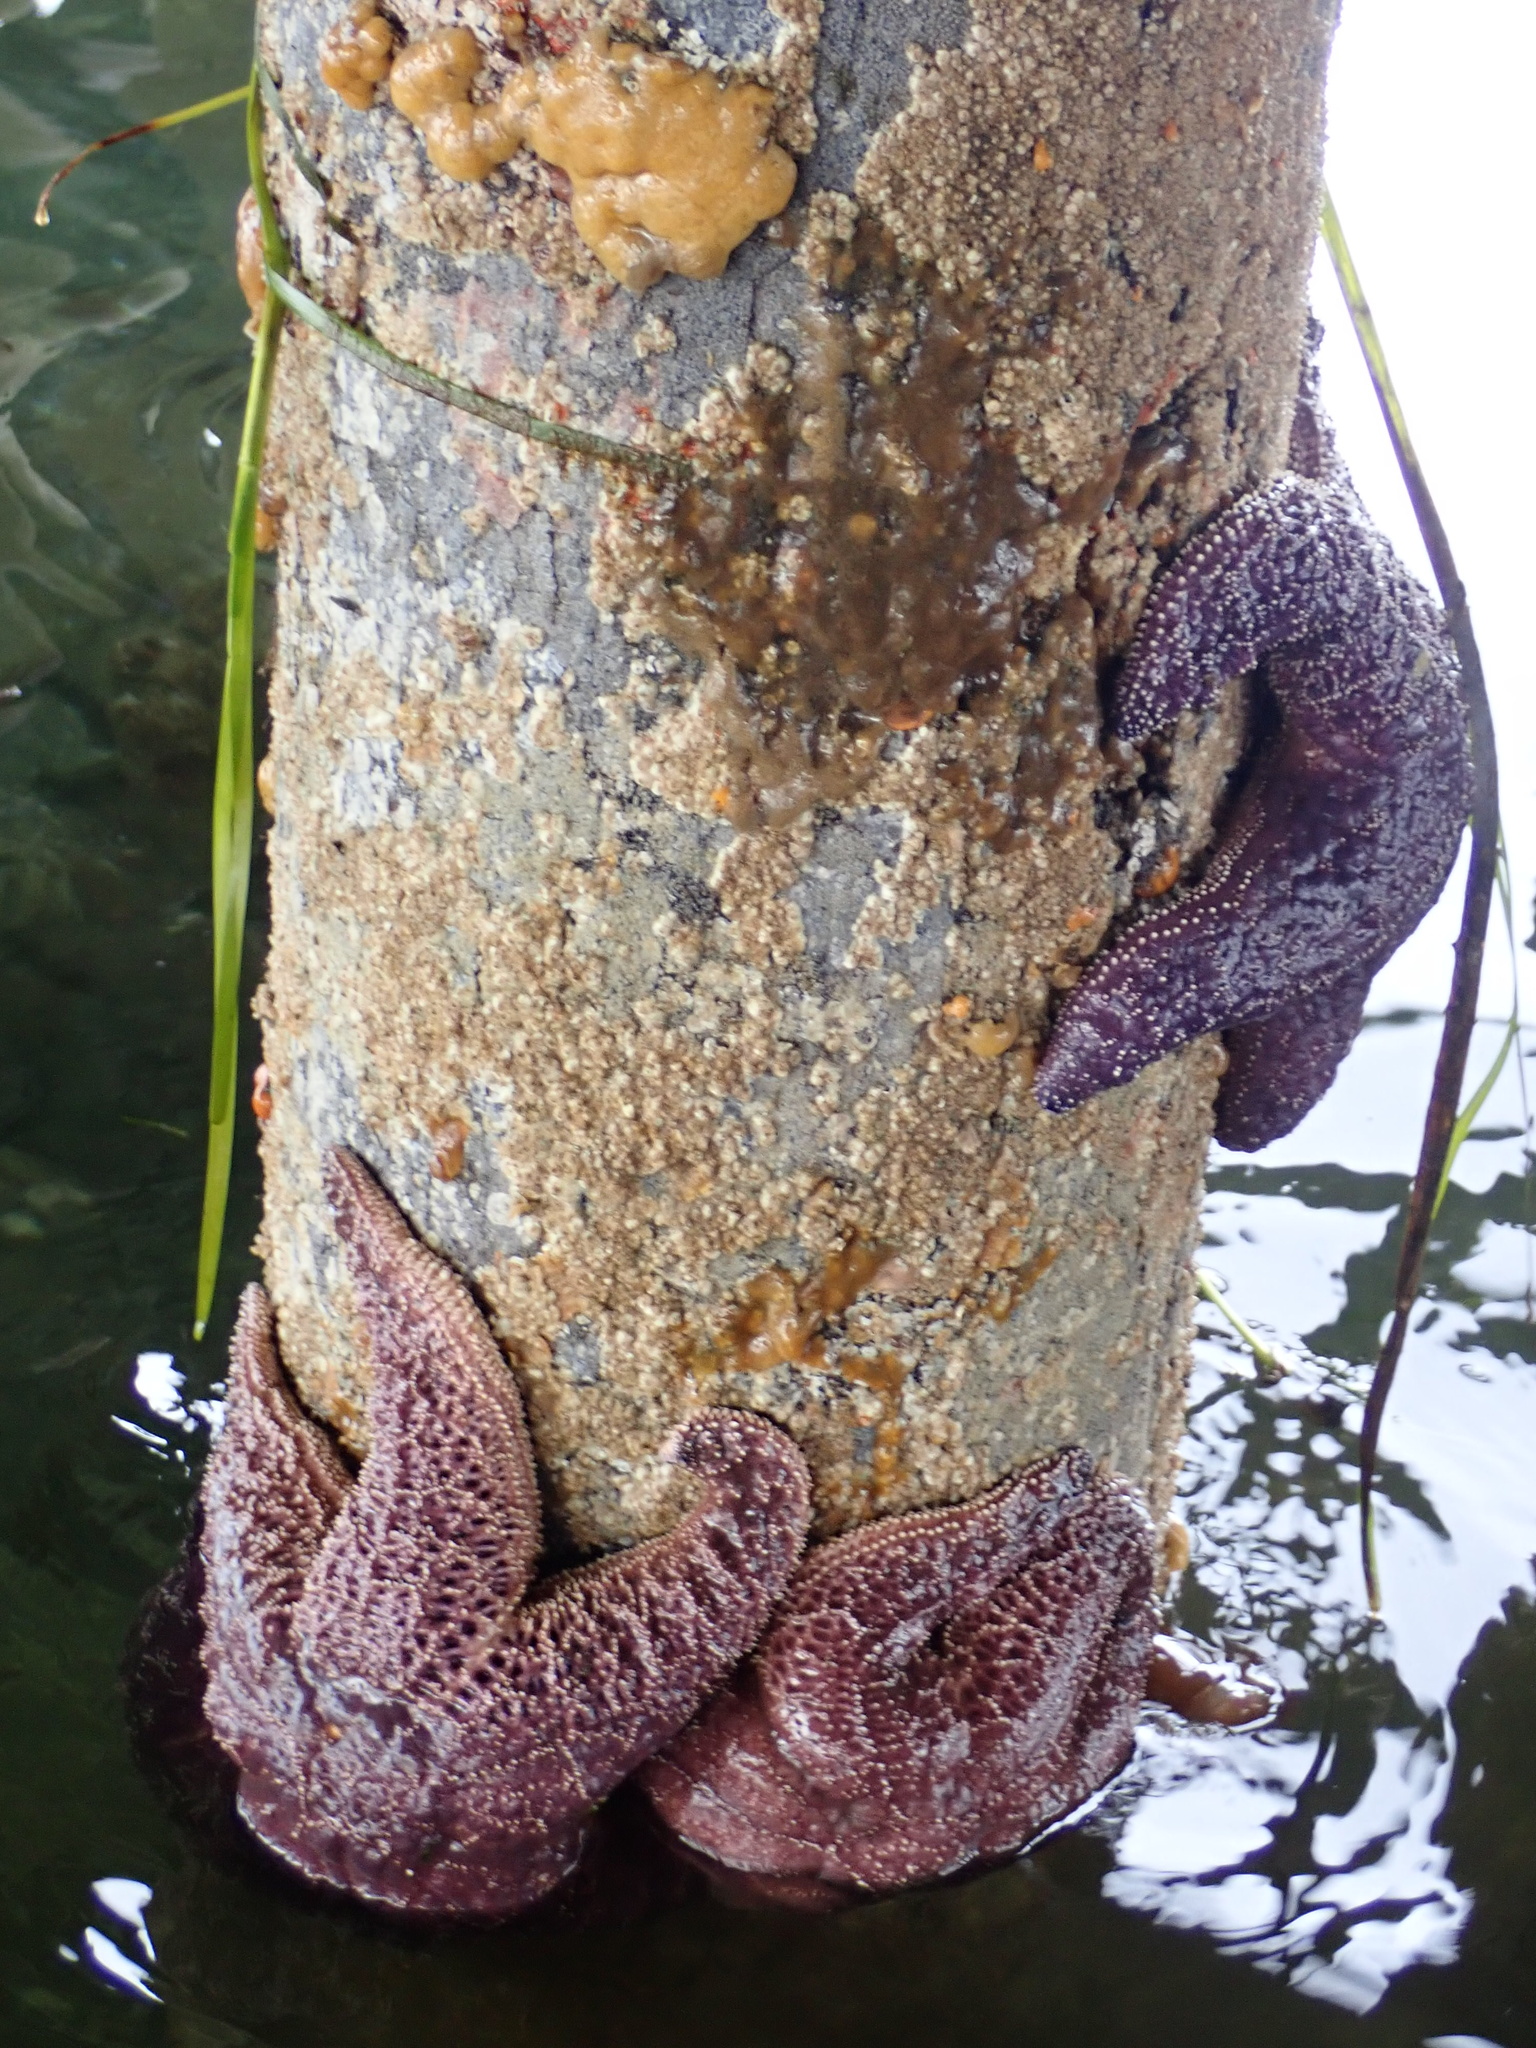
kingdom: Animalia
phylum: Echinodermata
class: Asteroidea
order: Forcipulatida
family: Asteriidae
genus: Pisaster
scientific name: Pisaster ochraceus
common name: Ochre stars
